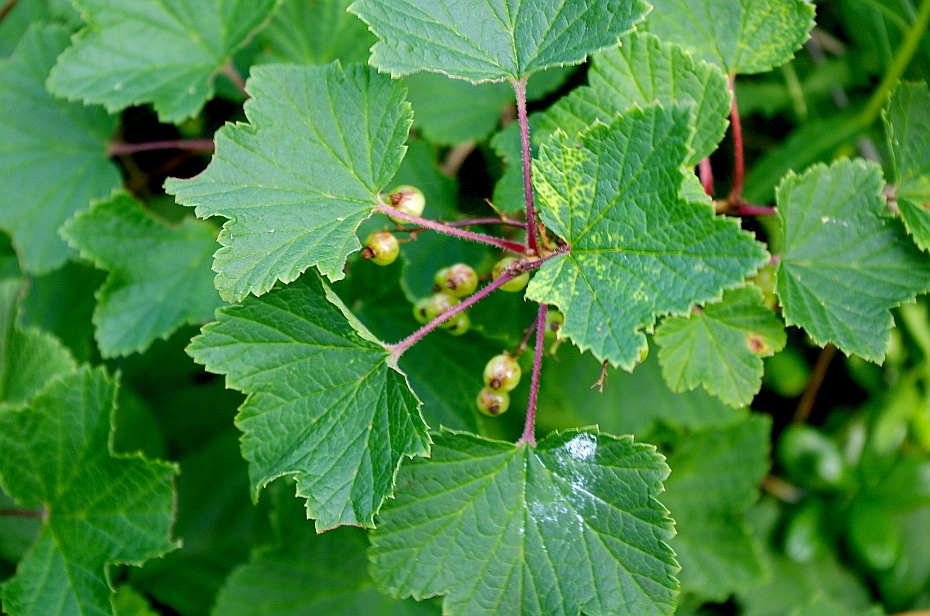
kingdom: Plantae
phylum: Tracheophyta
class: Magnoliopsida
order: Saxifragales
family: Grossulariaceae
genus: Ribes
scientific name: Ribes rubrum
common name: Red currant
